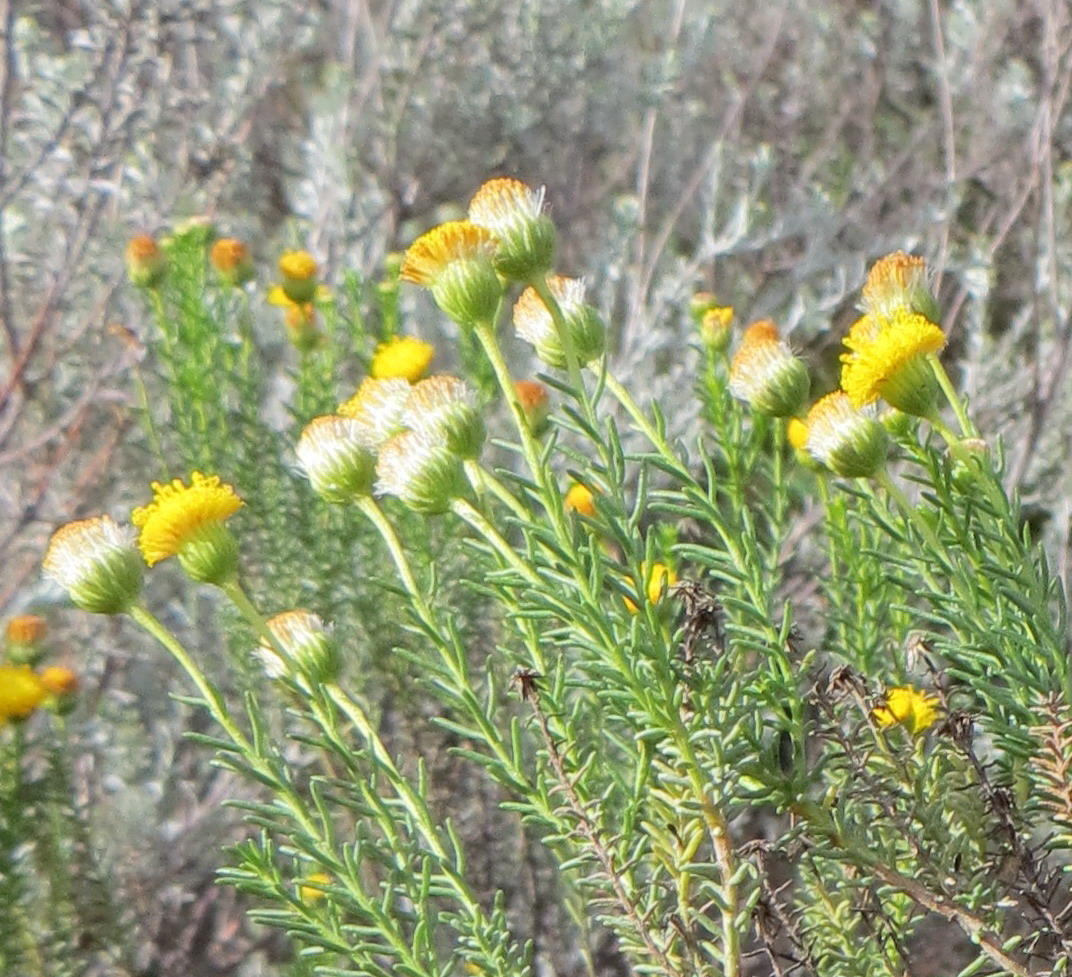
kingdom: Plantae
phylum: Tracheophyta
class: Magnoliopsida
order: Asterales
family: Asteraceae
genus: Chrysocoma
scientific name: Chrysocoma ciliata
